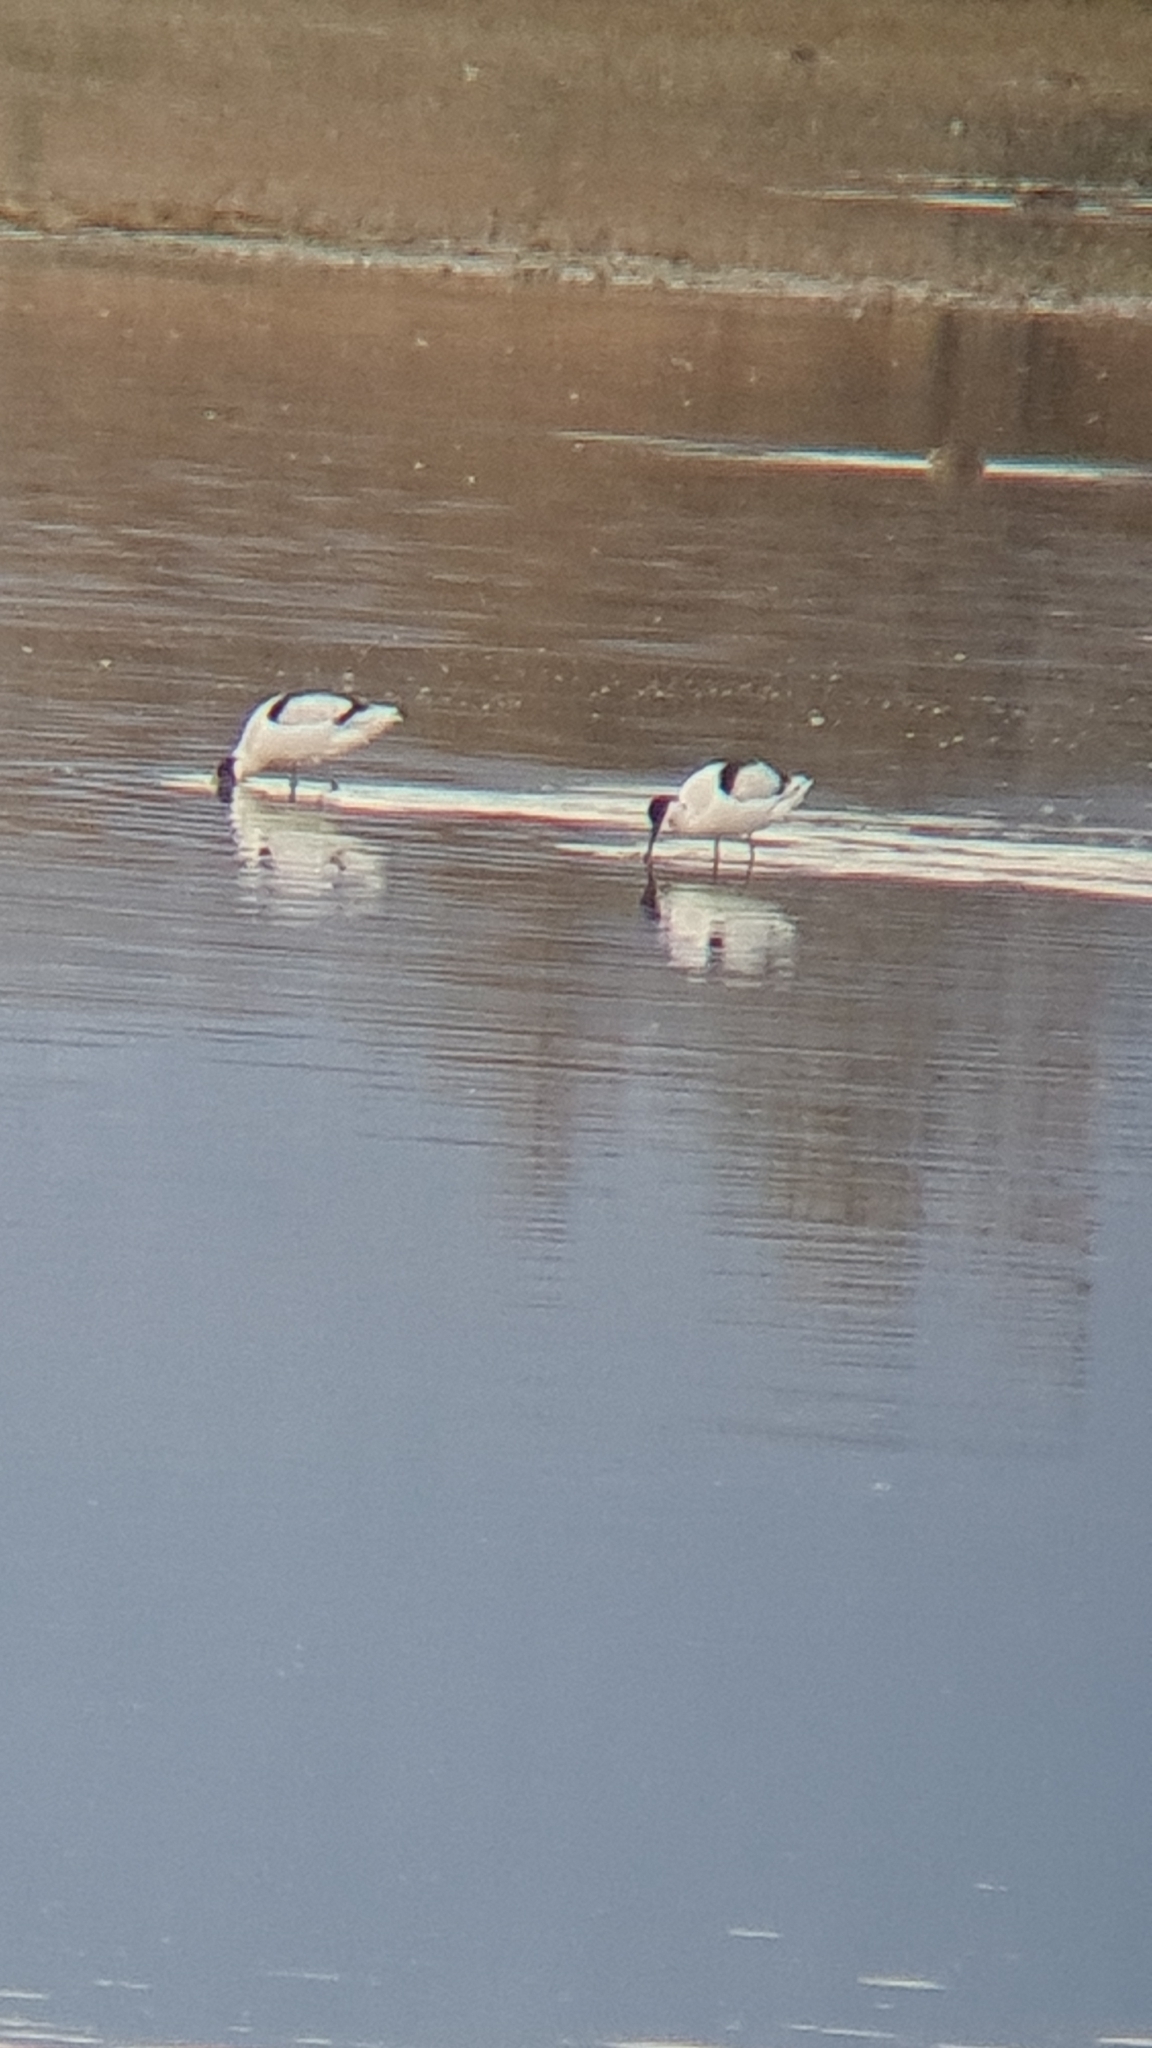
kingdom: Animalia
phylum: Chordata
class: Aves
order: Charadriiformes
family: Recurvirostridae
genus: Recurvirostra
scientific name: Recurvirostra avosetta
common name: Pied avocet
